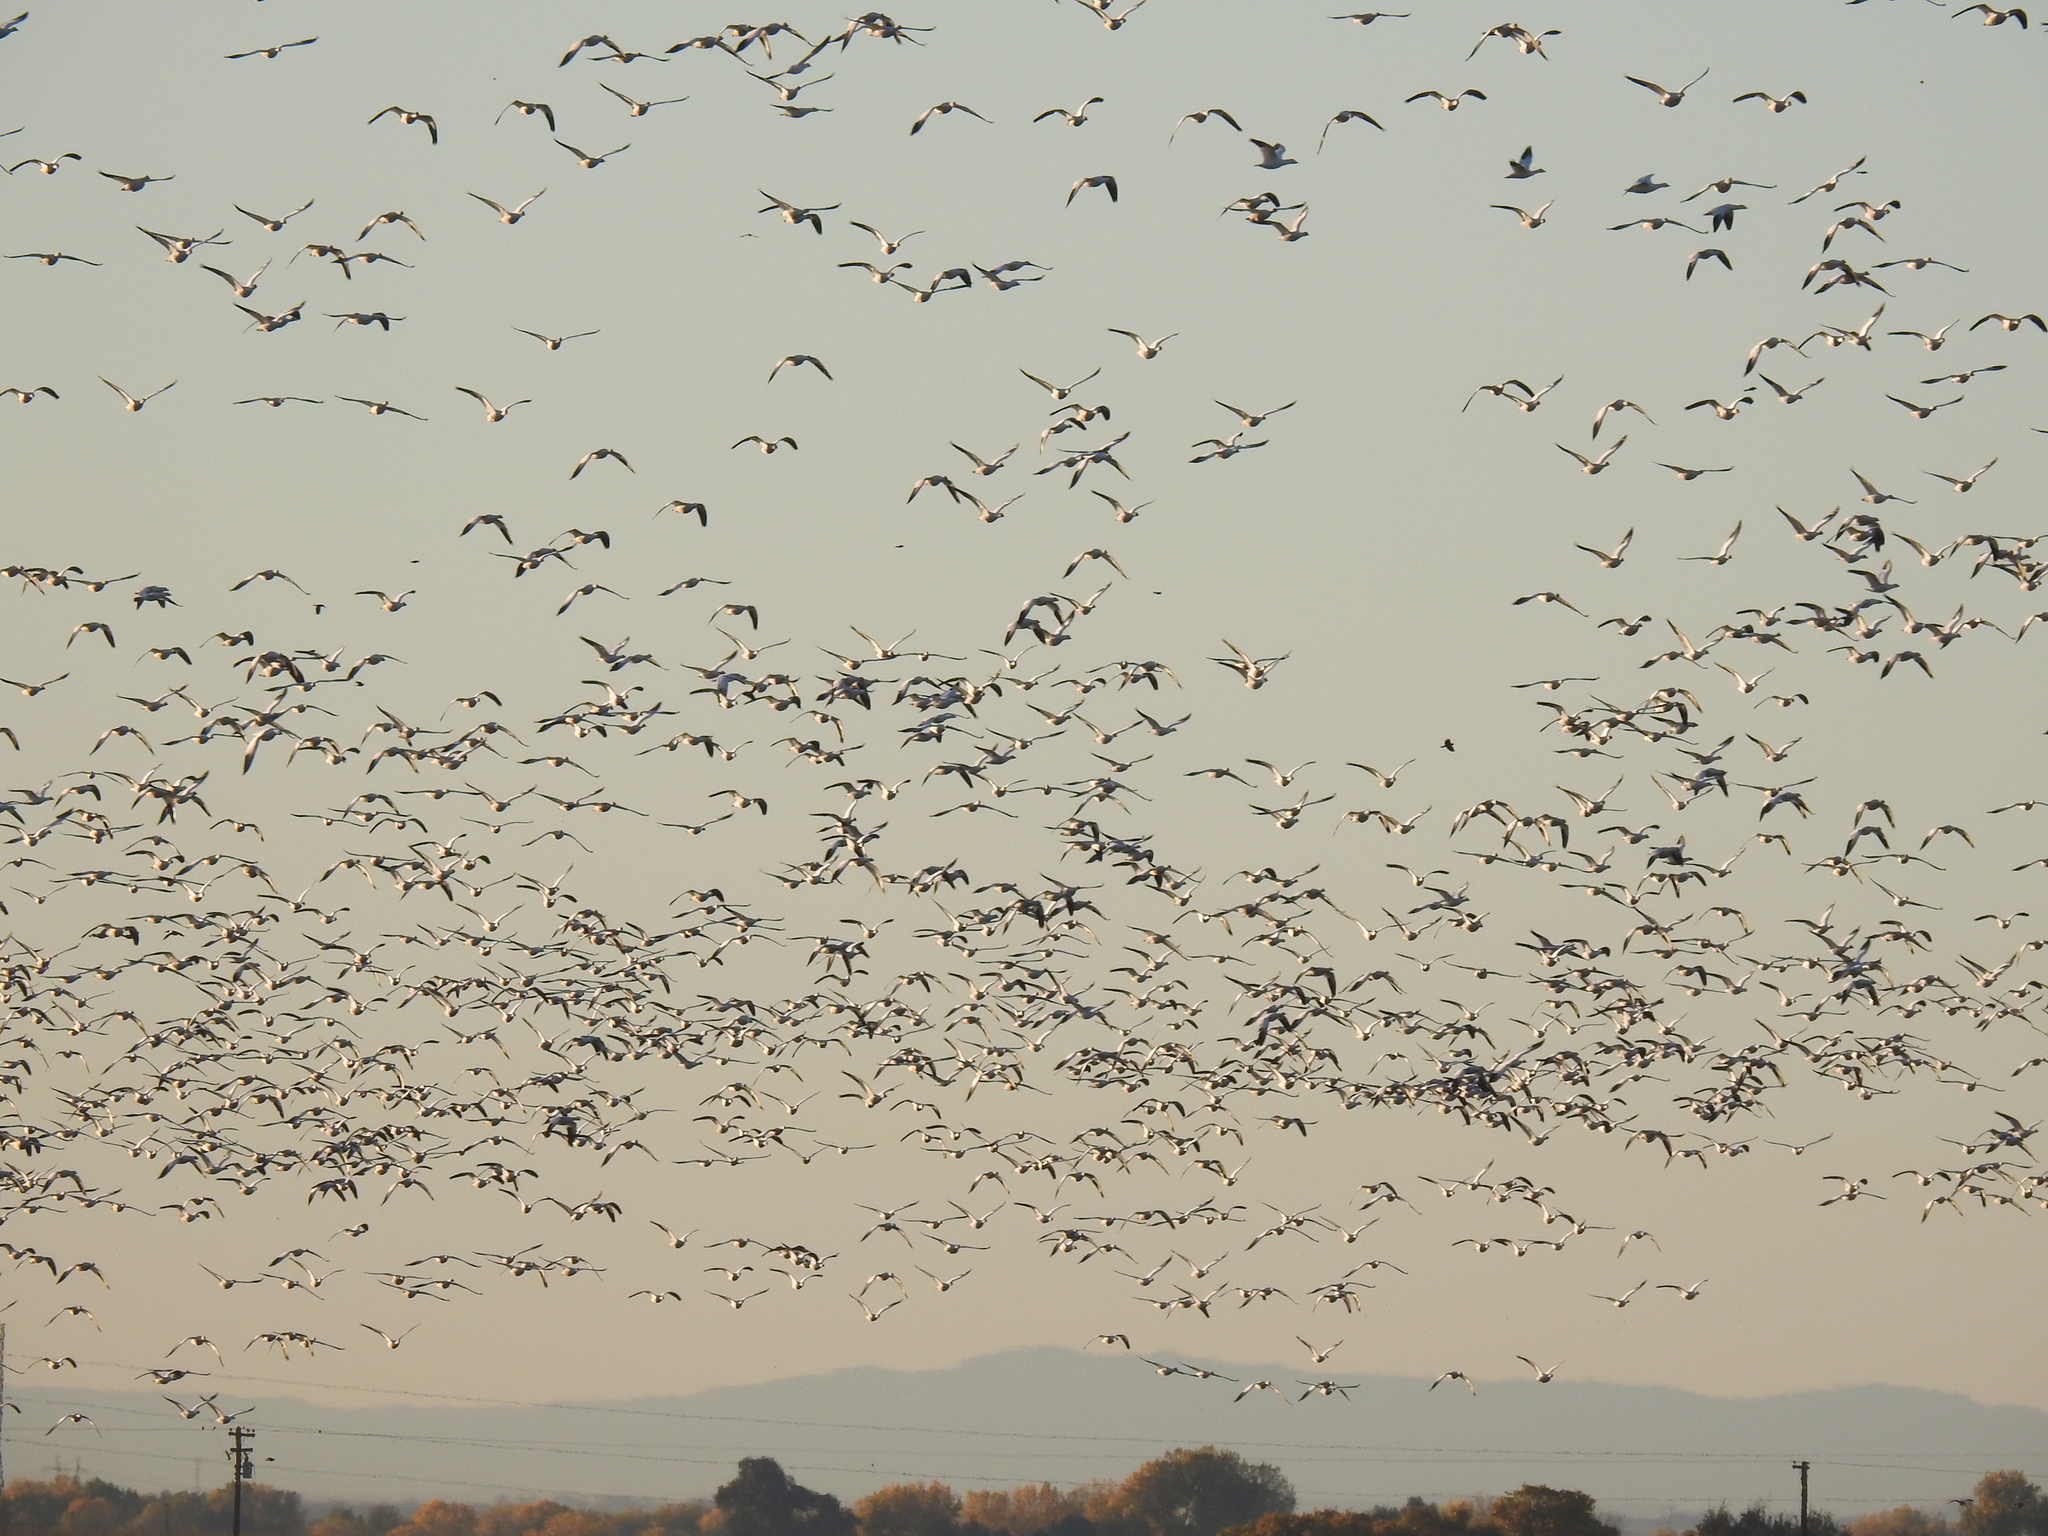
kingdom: Animalia
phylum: Chordata
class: Aves
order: Anseriformes
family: Anatidae
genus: Anser
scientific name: Anser caerulescens
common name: Snow goose
